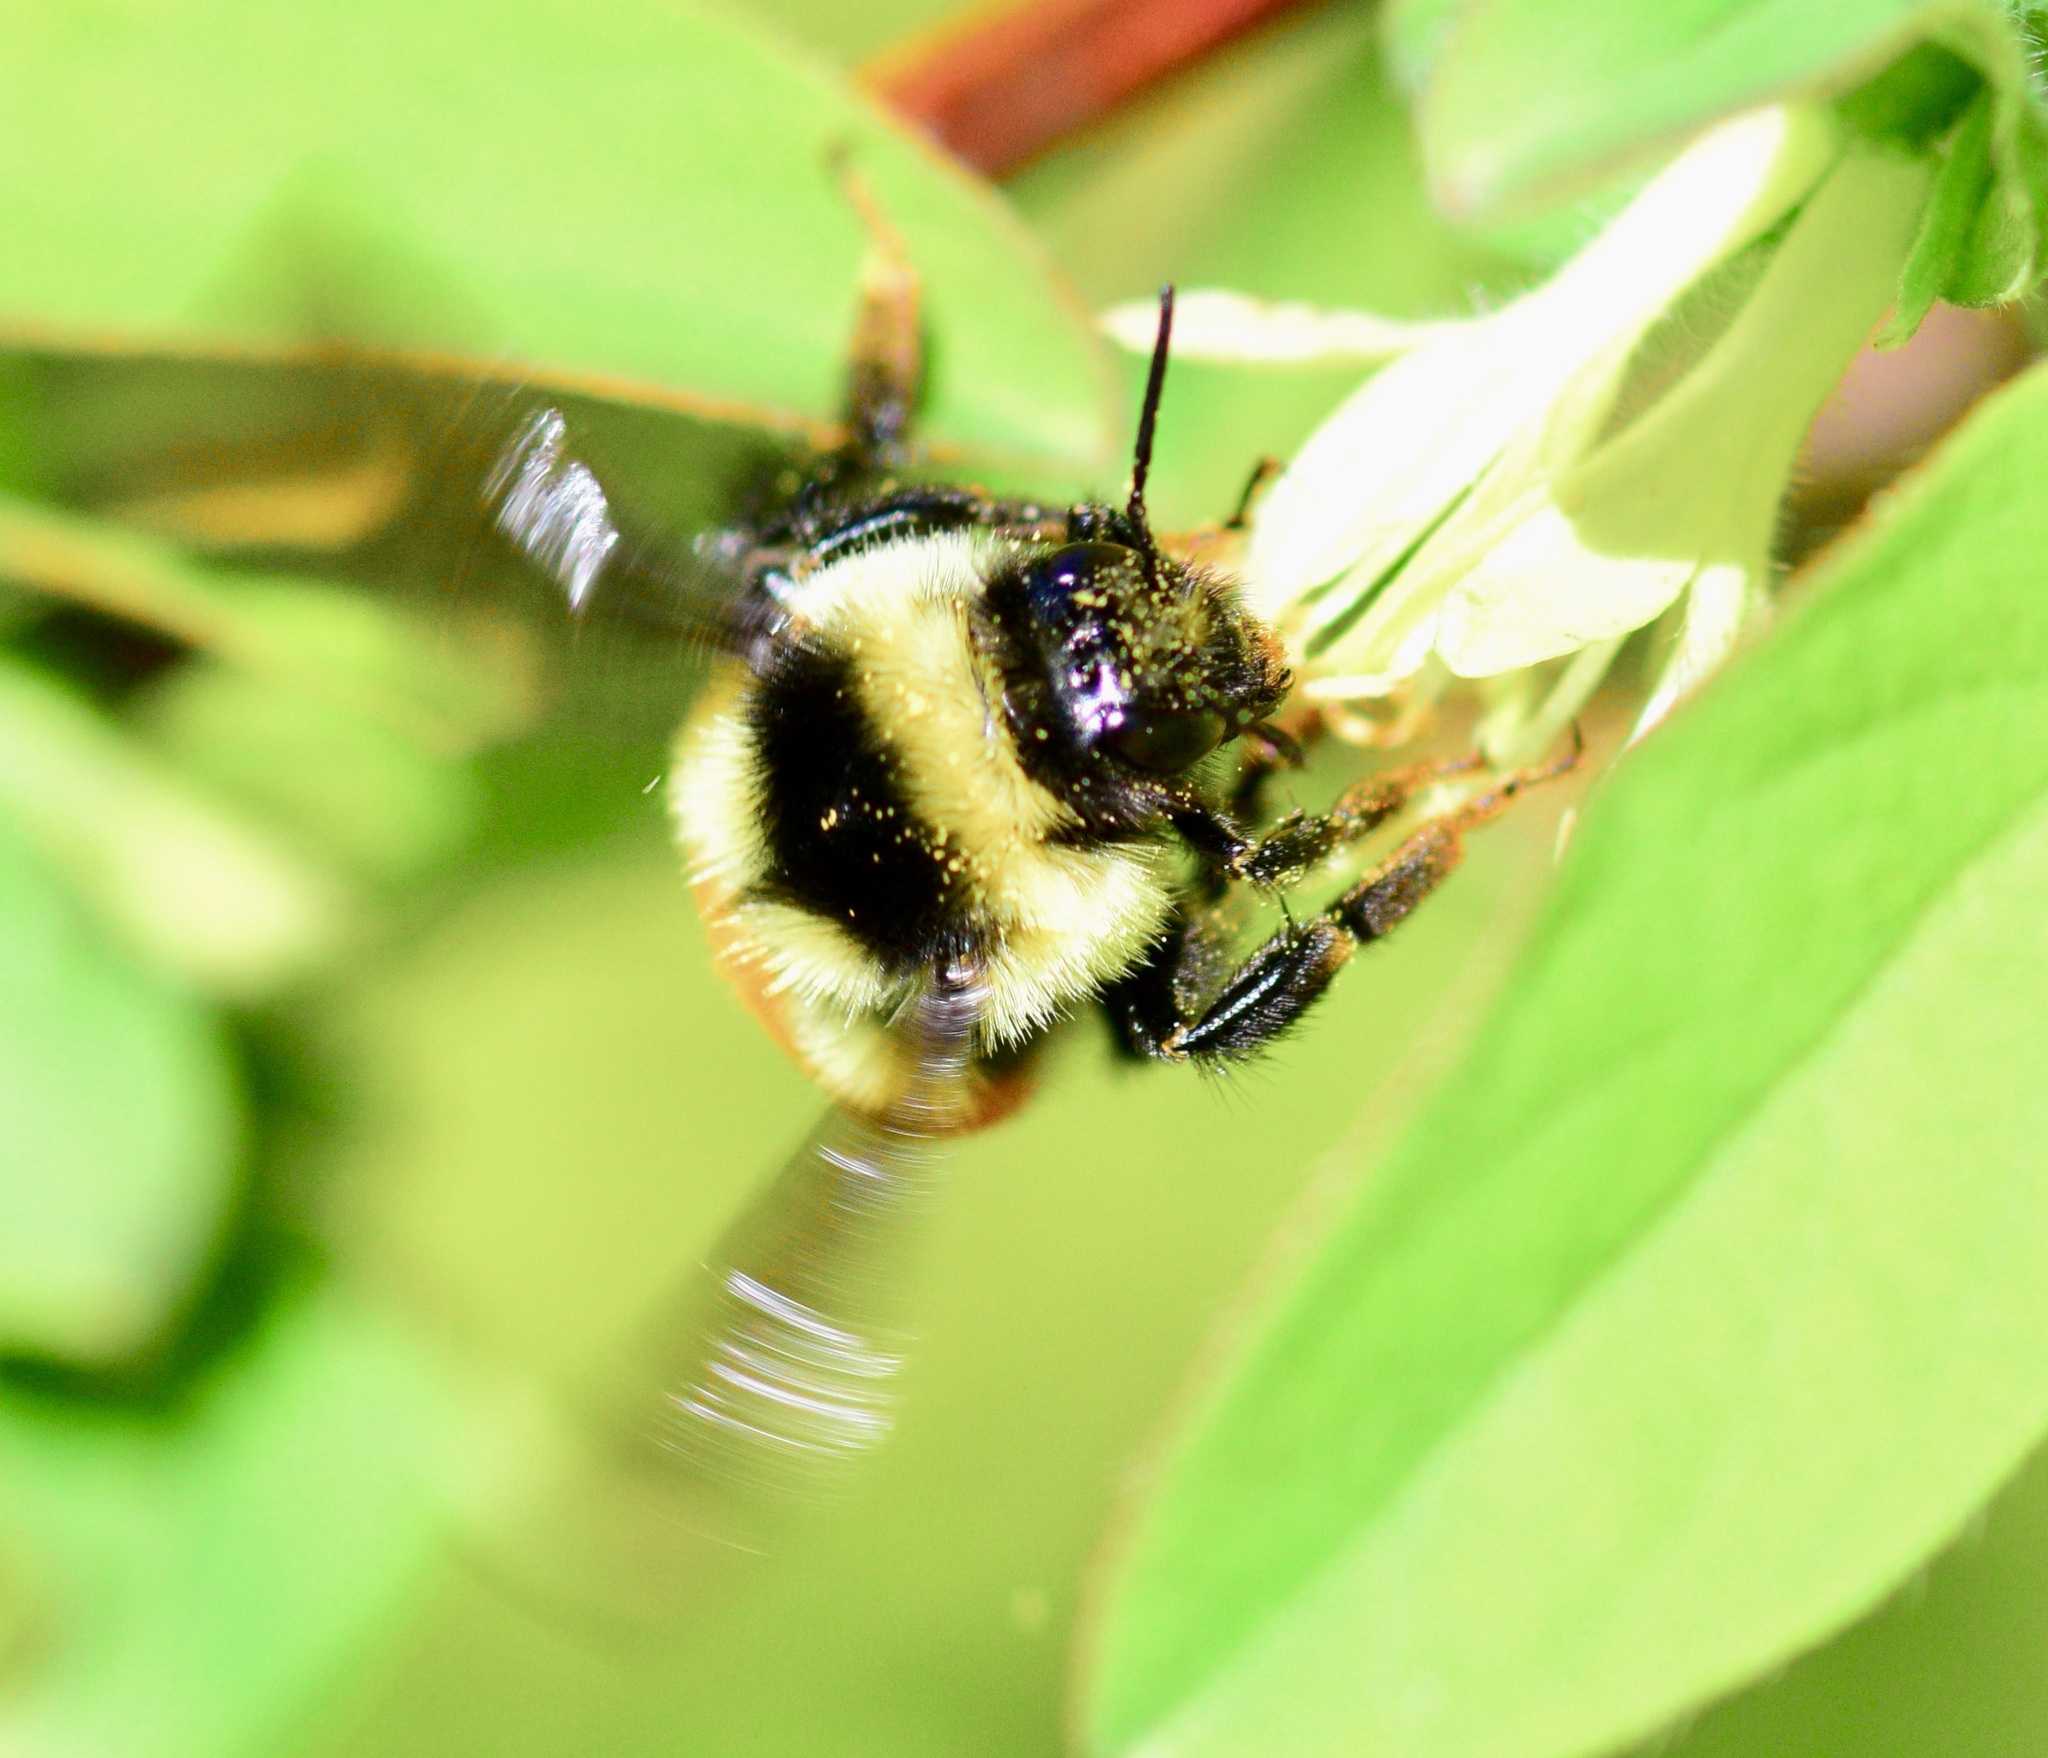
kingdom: Animalia
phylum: Arthropoda
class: Insecta
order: Hymenoptera
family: Apidae
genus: Bombus
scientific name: Bombus ternarius
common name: Tri-colored bumble bee
